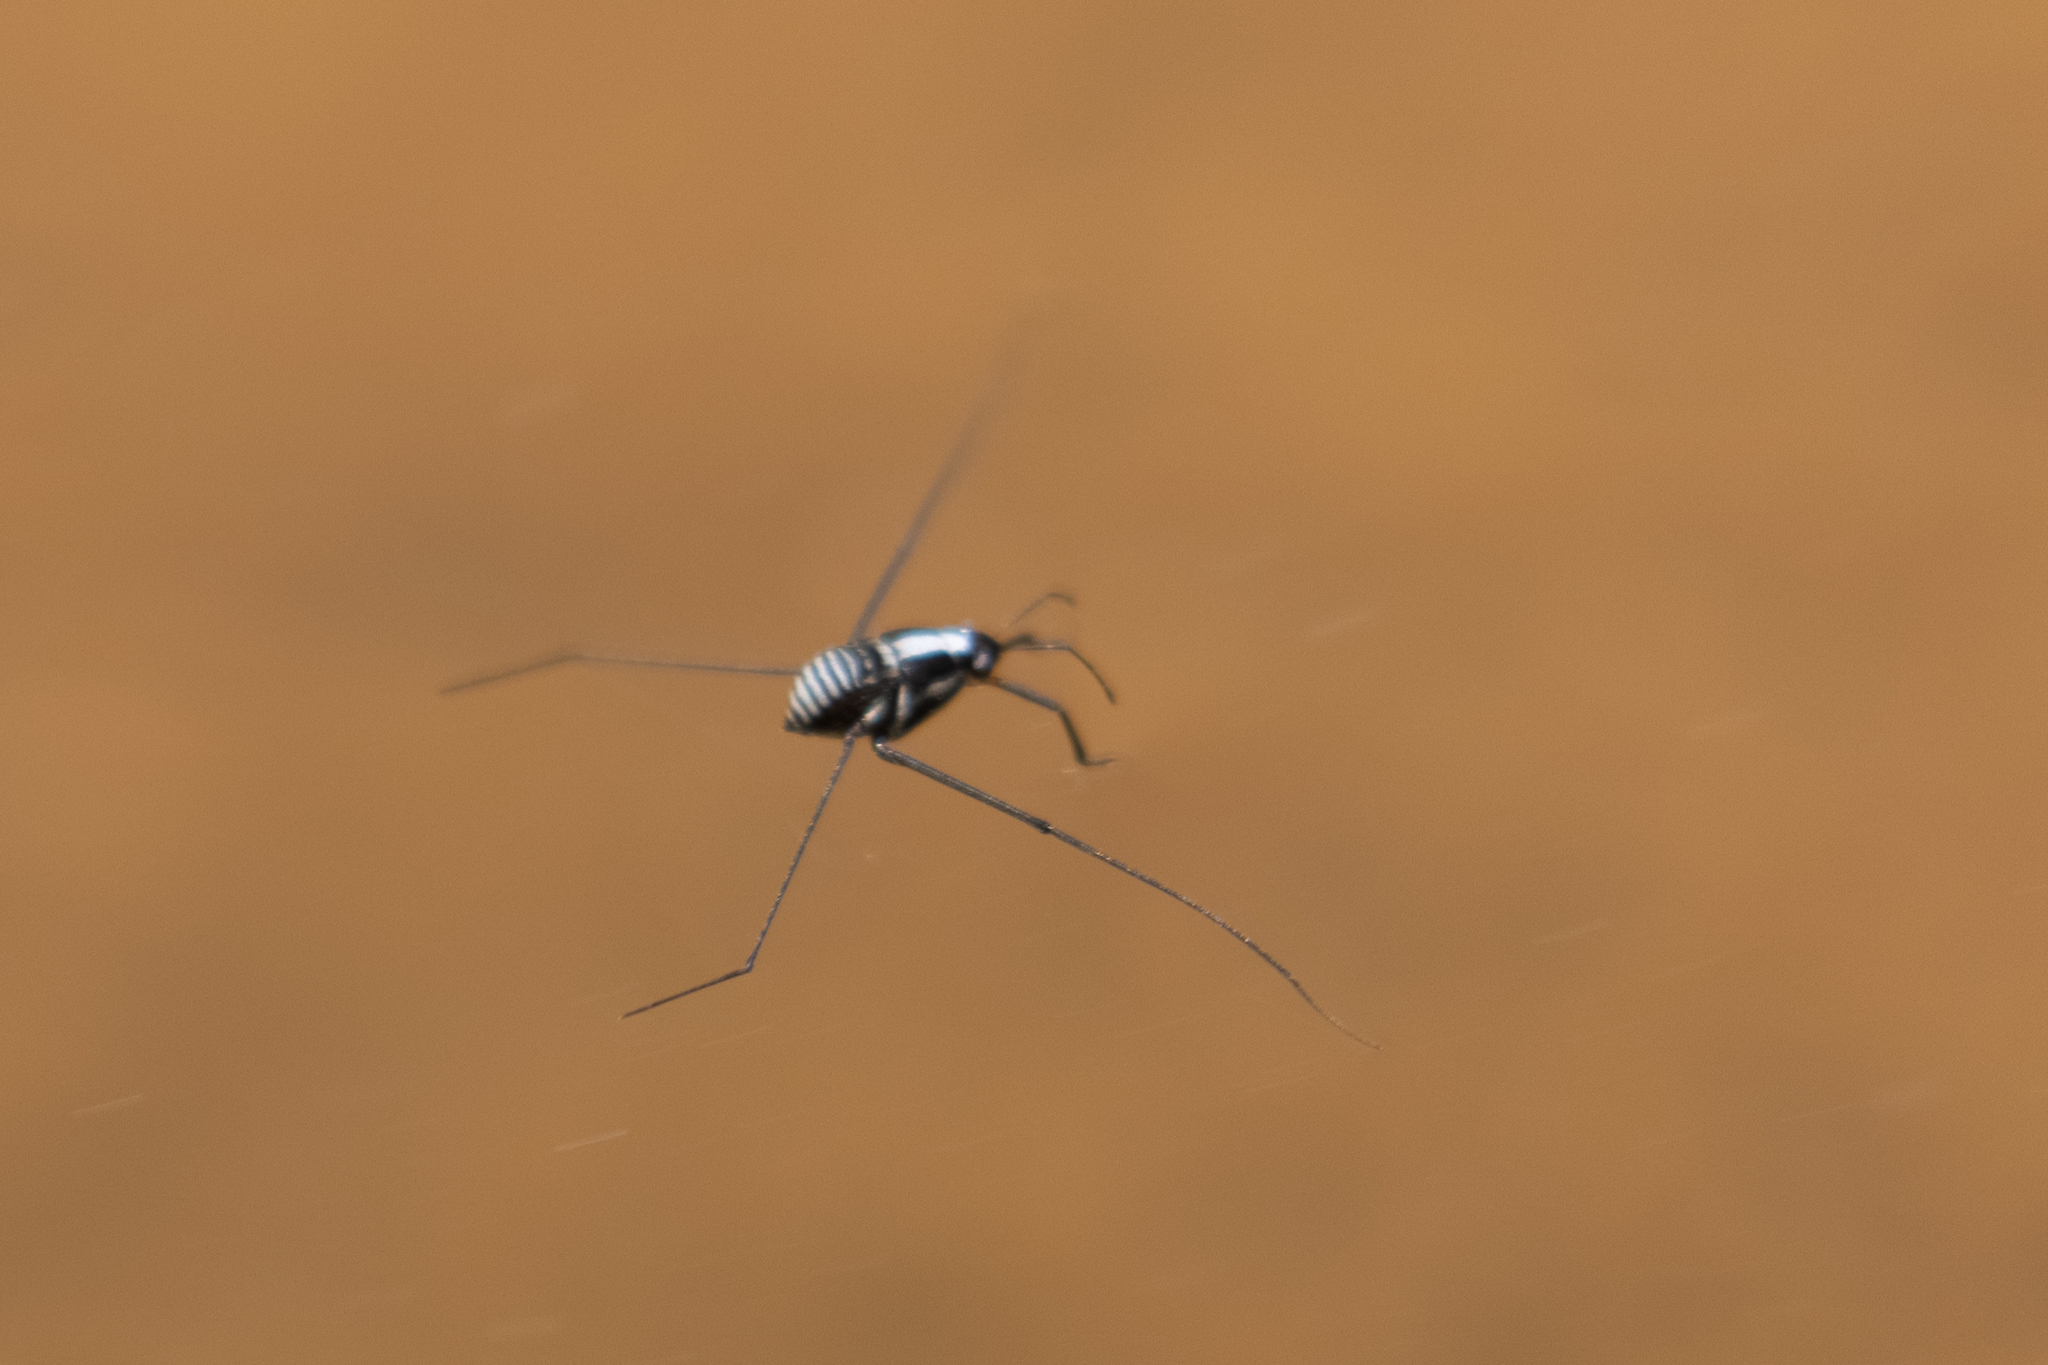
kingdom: Animalia
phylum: Arthropoda
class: Insecta
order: Hemiptera
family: Gerridae
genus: Metrobates
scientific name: Metrobates
